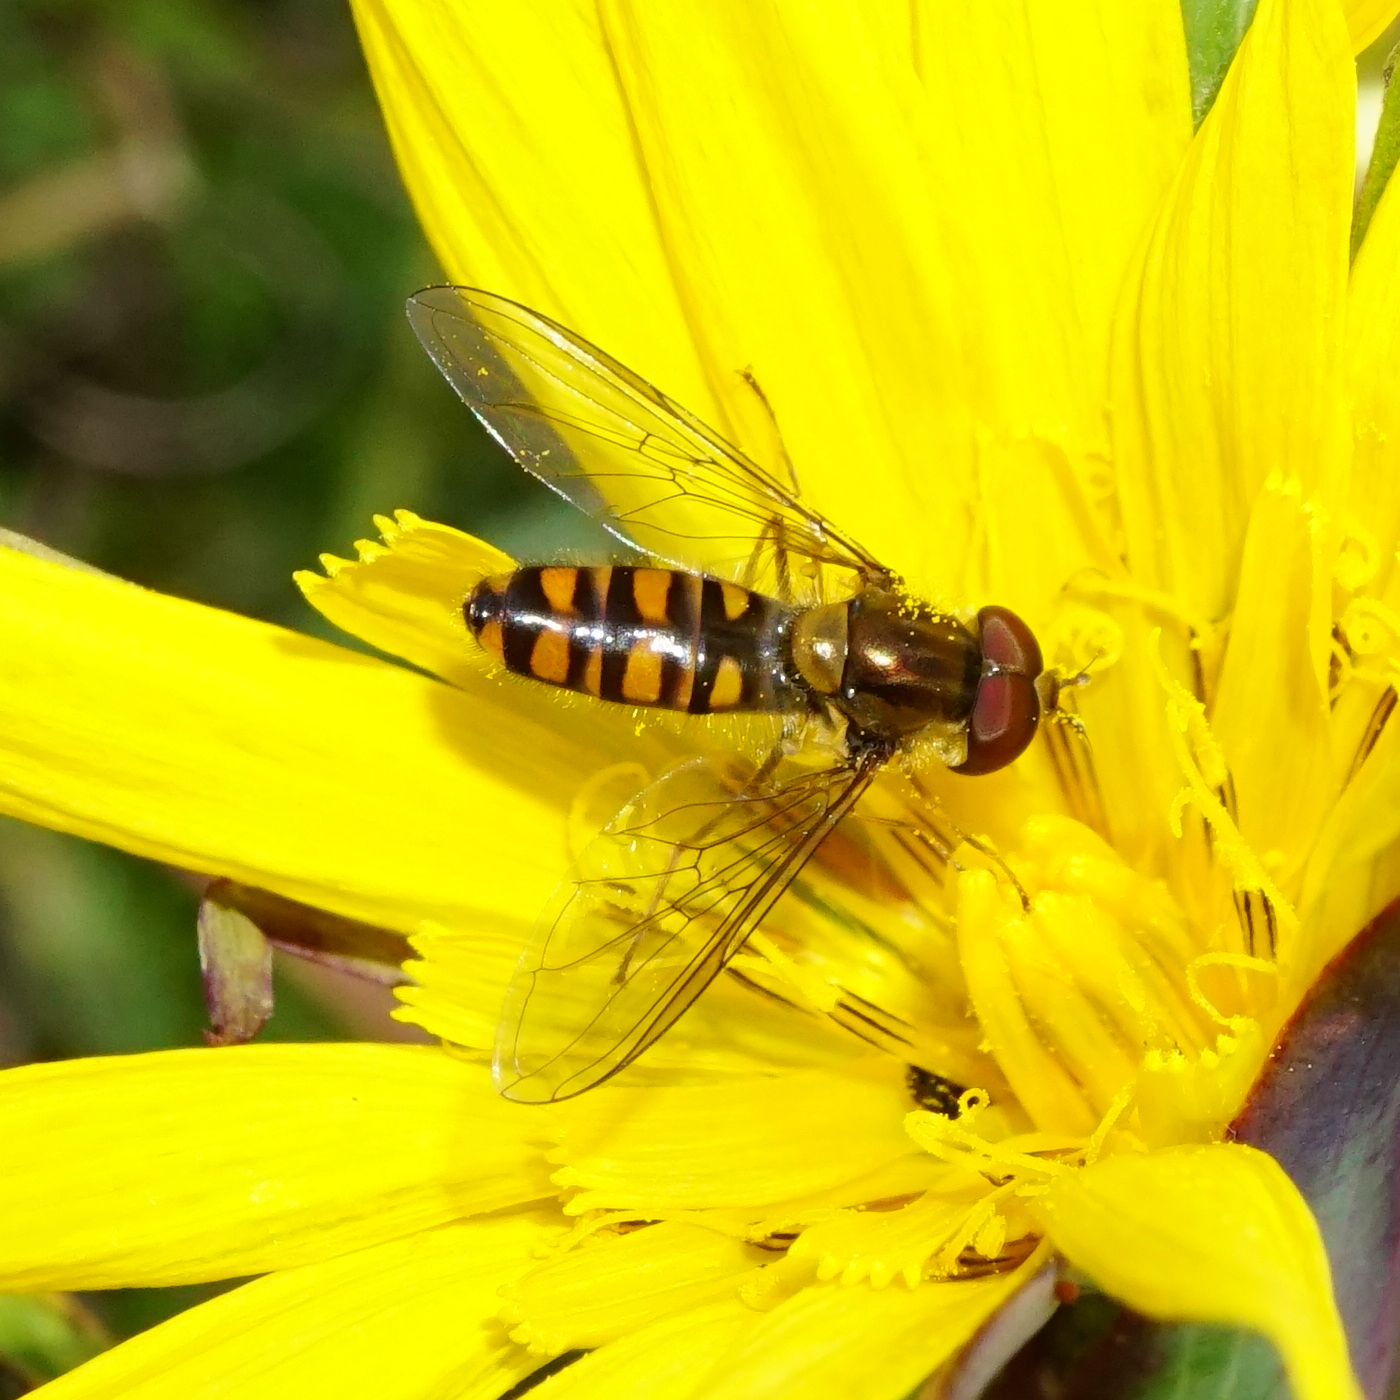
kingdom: Animalia
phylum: Arthropoda
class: Insecta
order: Diptera
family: Syrphidae
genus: Episyrphus
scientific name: Episyrphus balteatus
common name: Marmalade hoverfly
